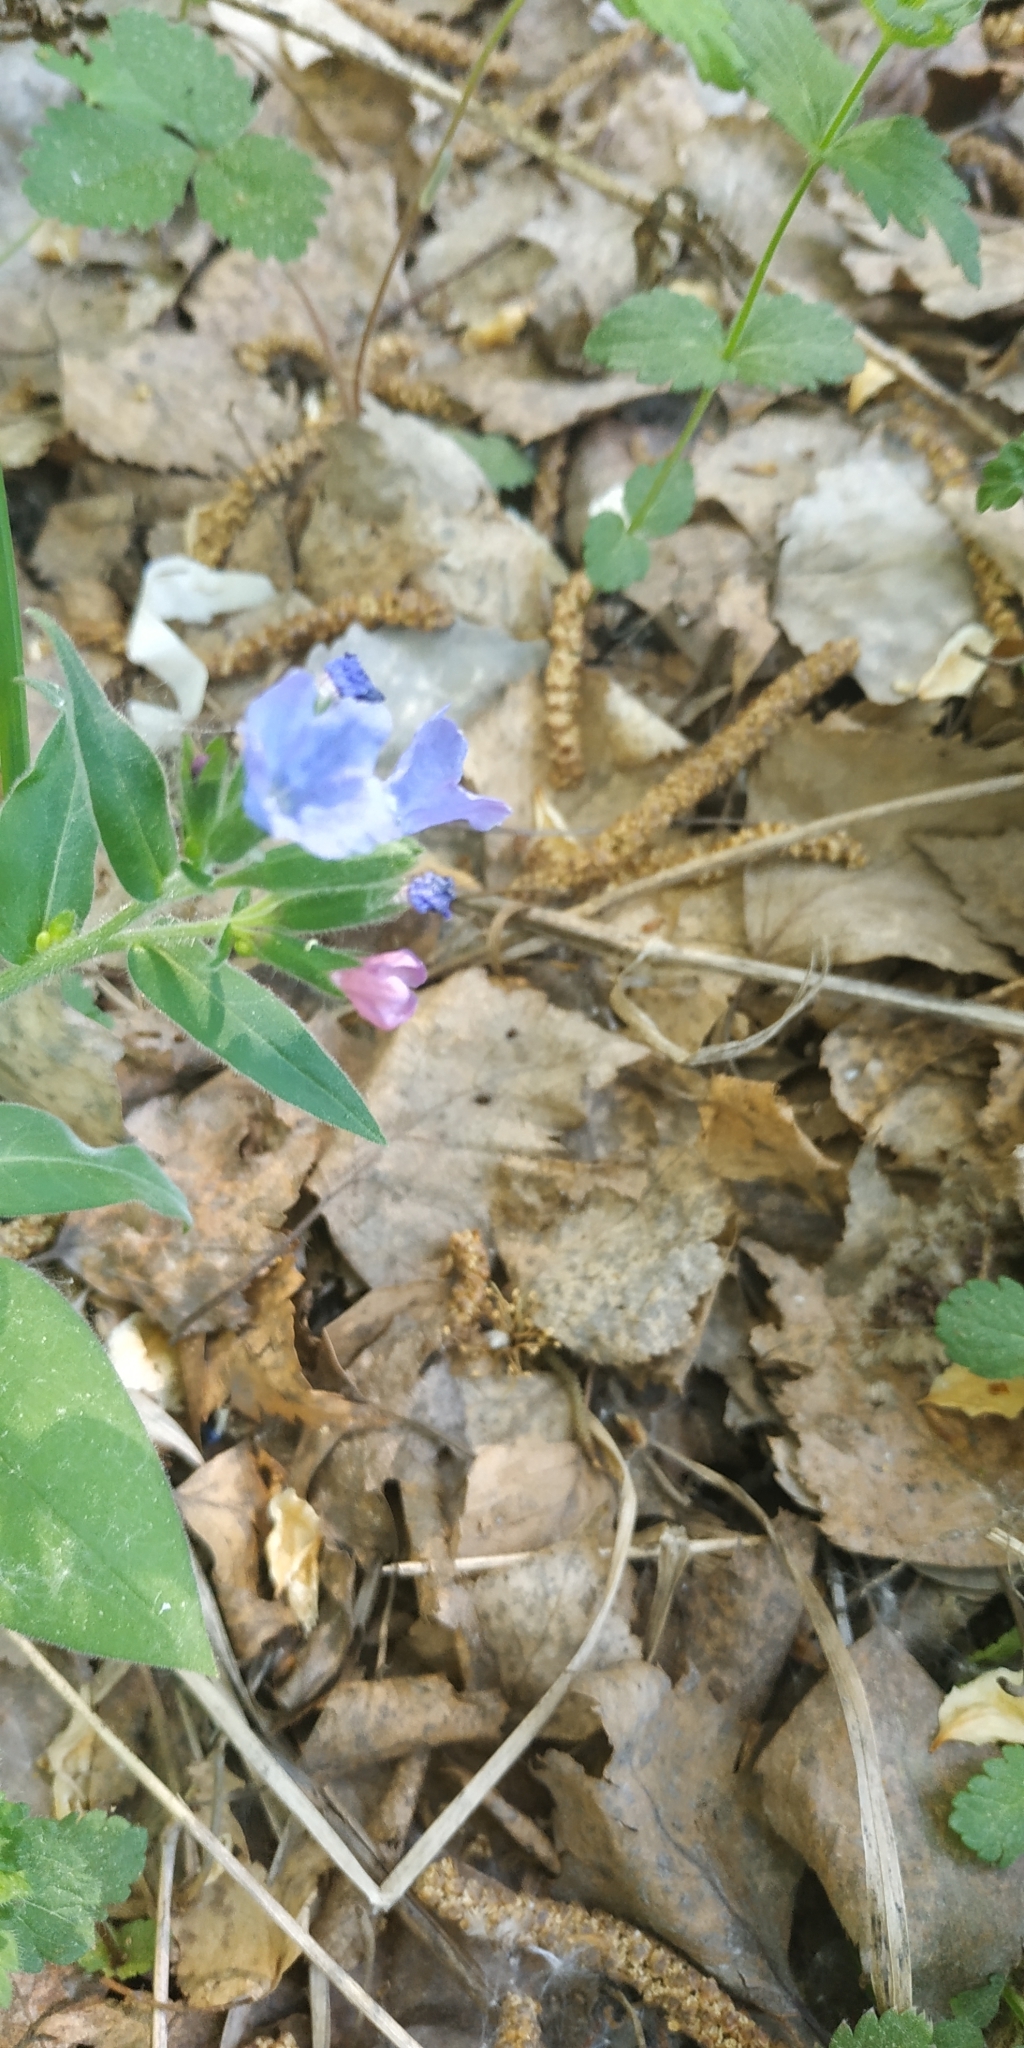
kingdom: Plantae
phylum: Tracheophyta
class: Magnoliopsida
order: Boraginales
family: Boraginaceae
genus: Pulmonaria
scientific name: Pulmonaria mollis
